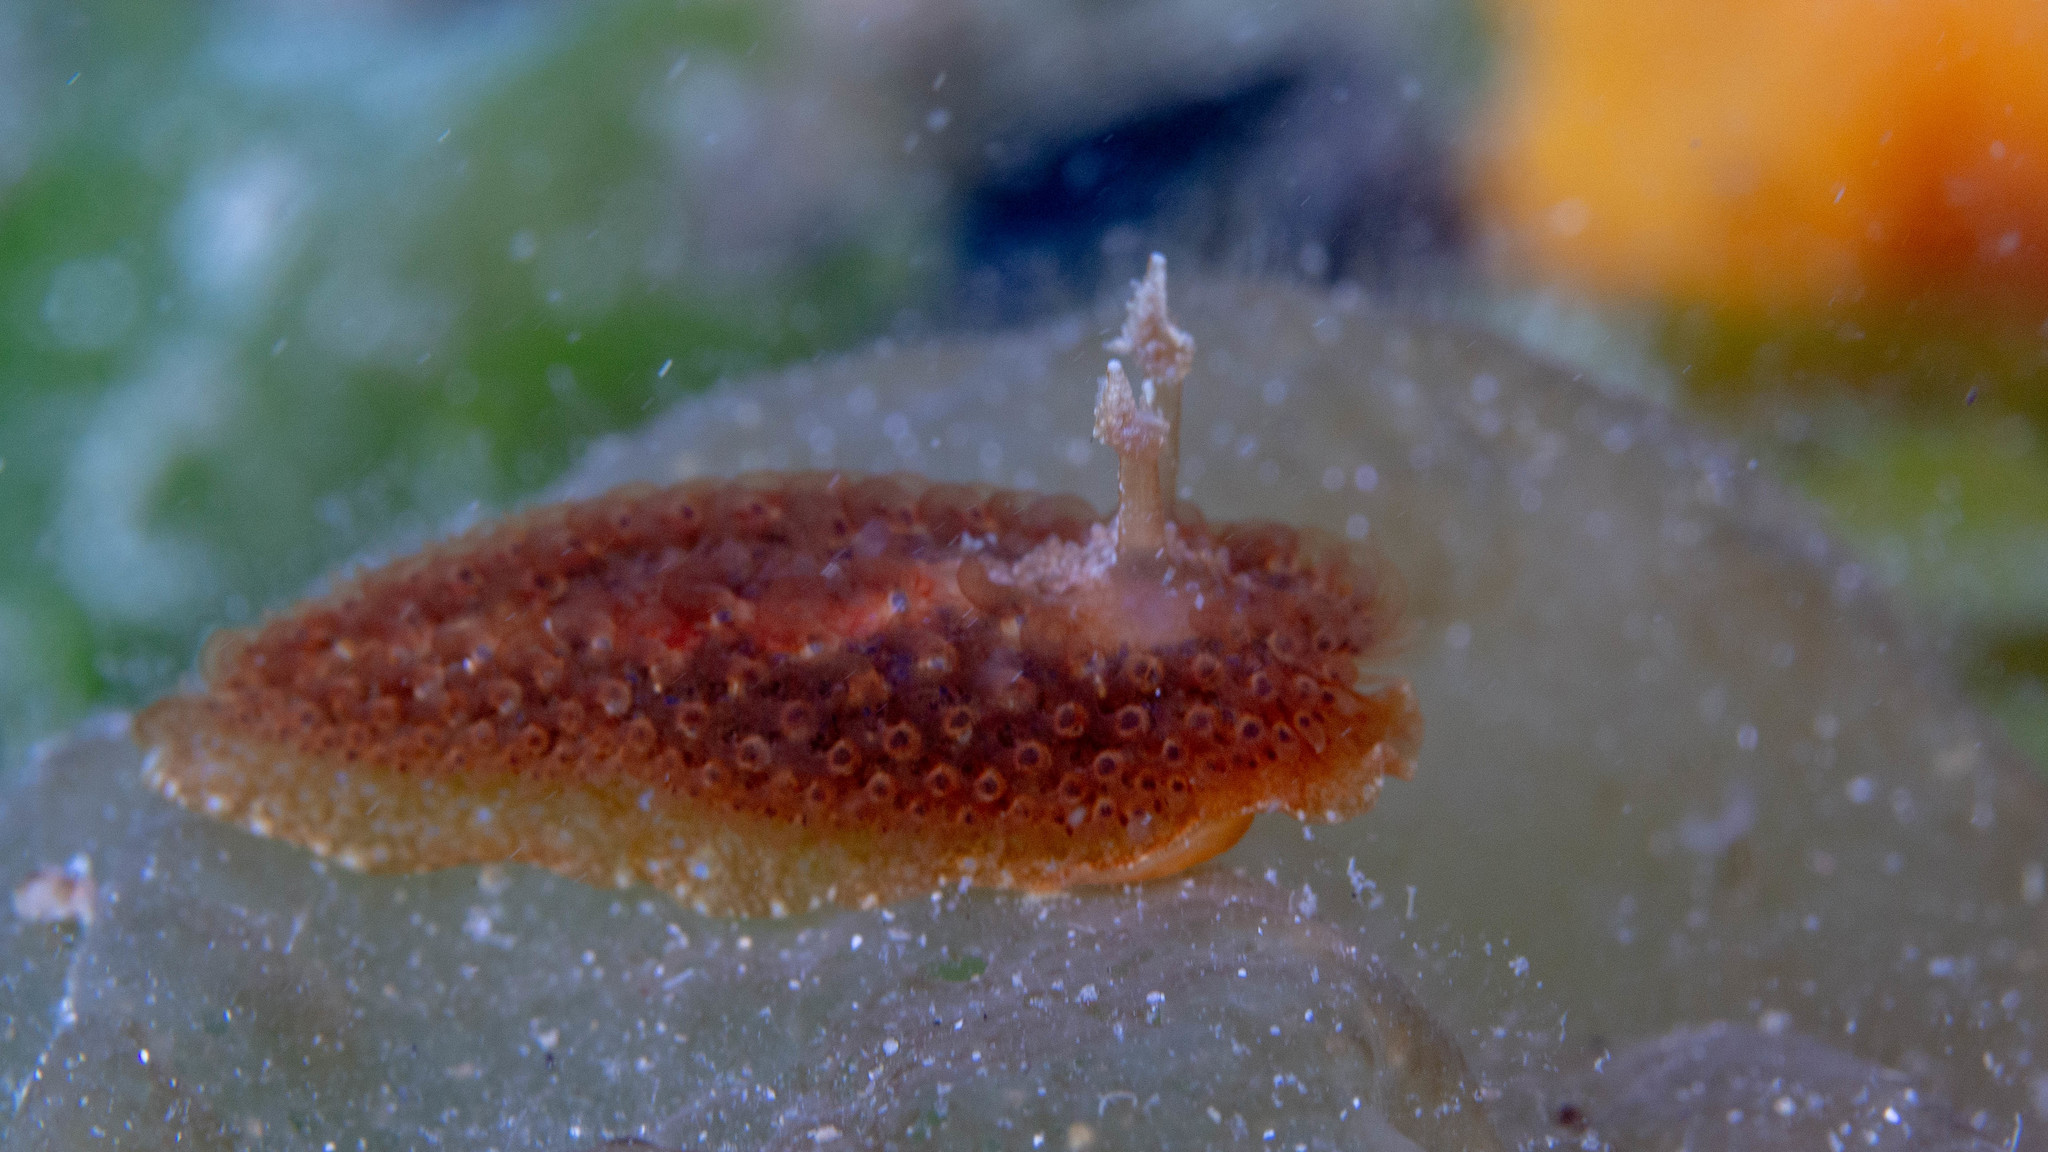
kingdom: Animalia
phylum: Mollusca
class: Gastropoda
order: Nudibranchia
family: Madrellidae
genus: Madrella
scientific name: Madrella ferruginosa
